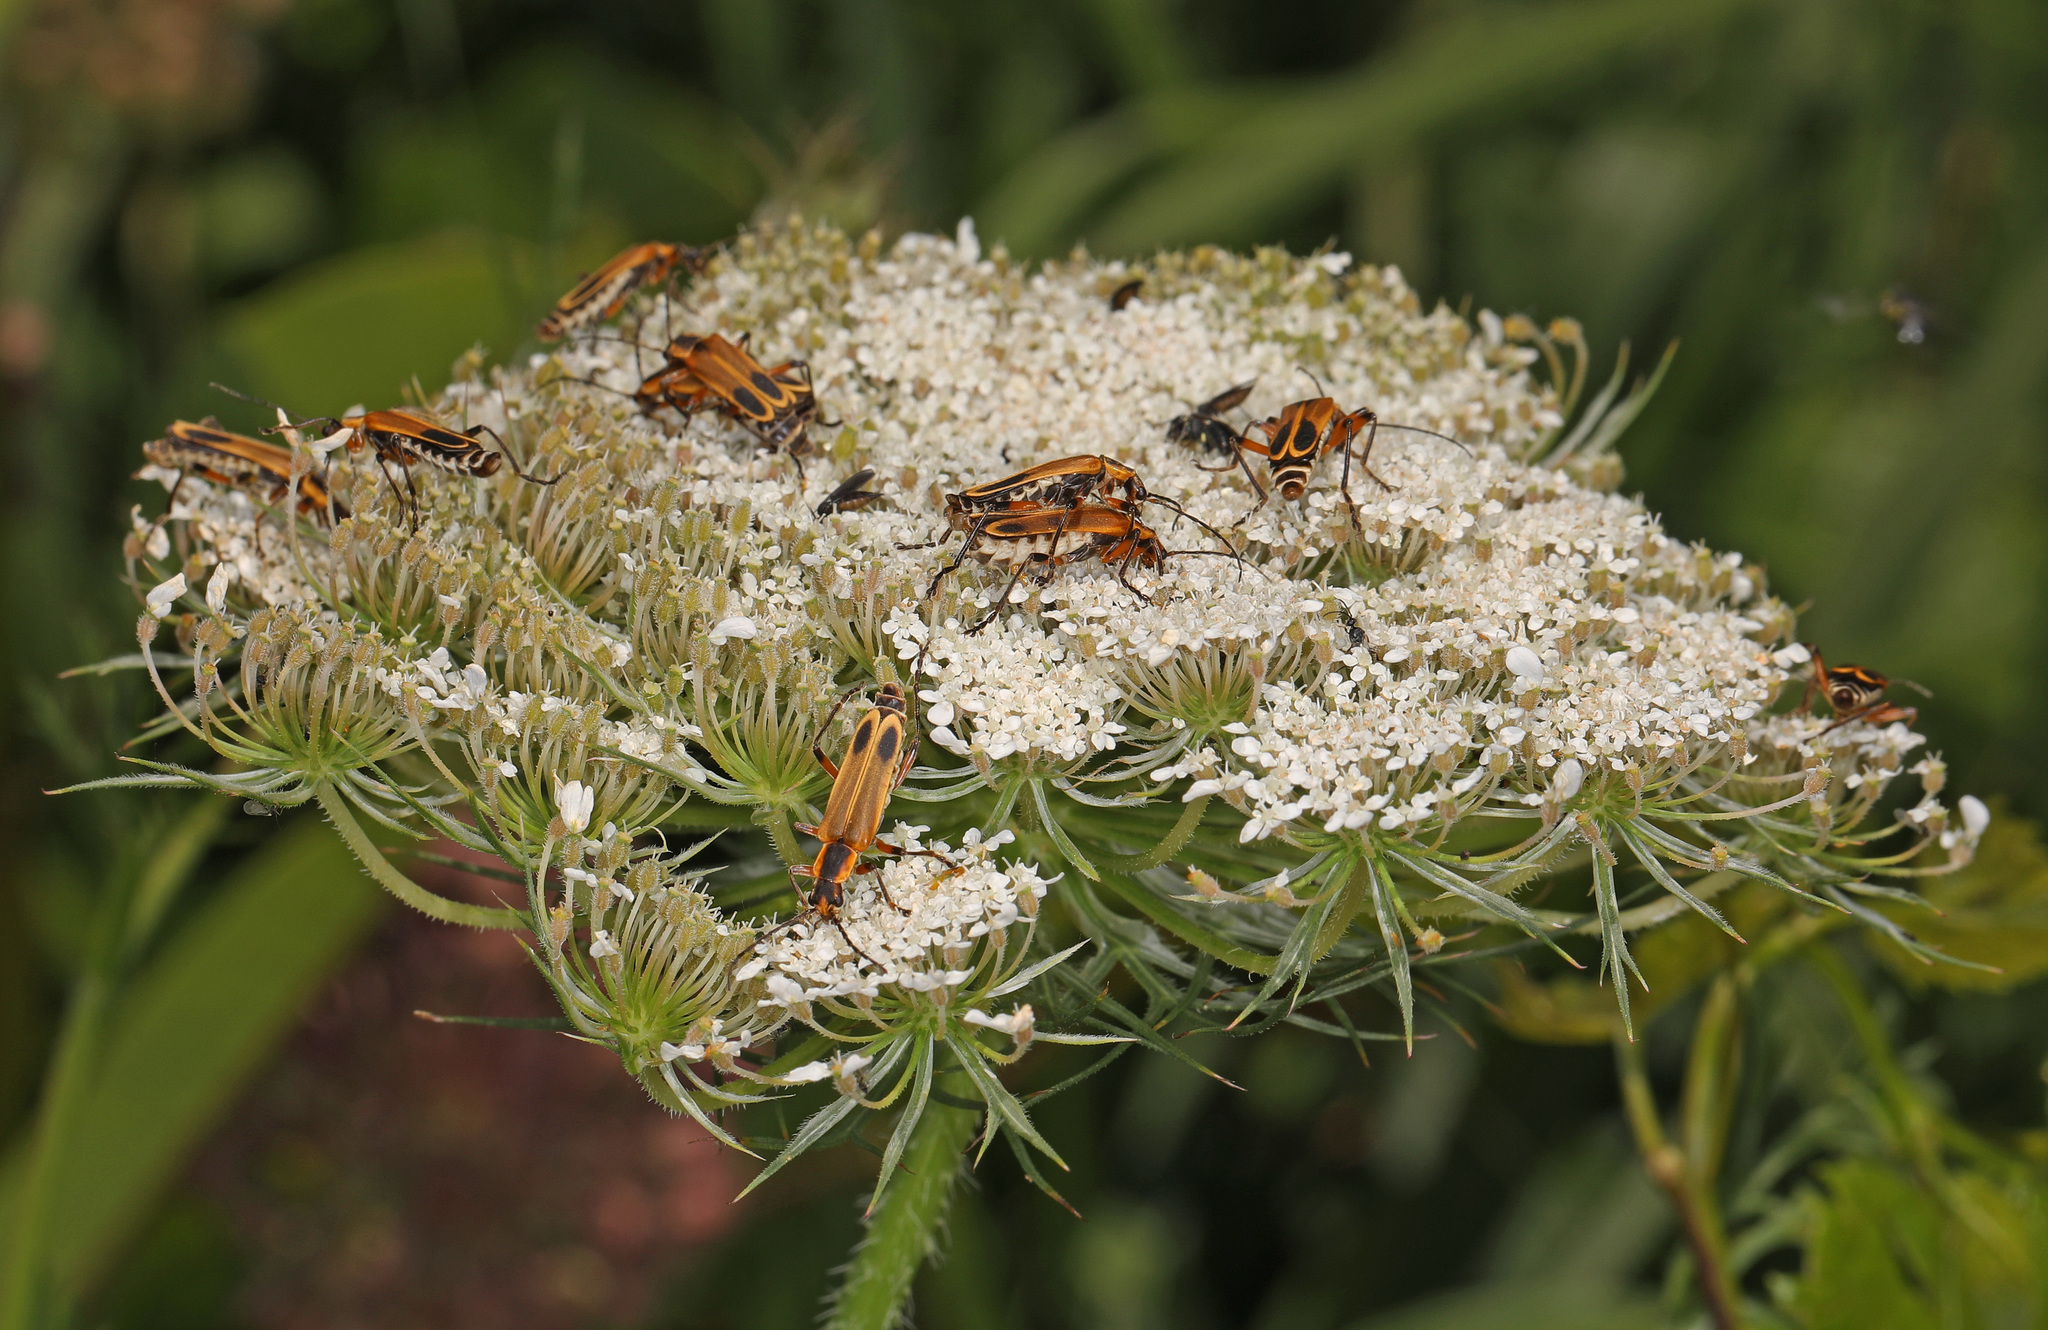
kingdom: Animalia
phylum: Arthropoda
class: Insecta
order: Coleoptera
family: Cantharidae
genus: Chauliognathus
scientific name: Chauliognathus marginatus
